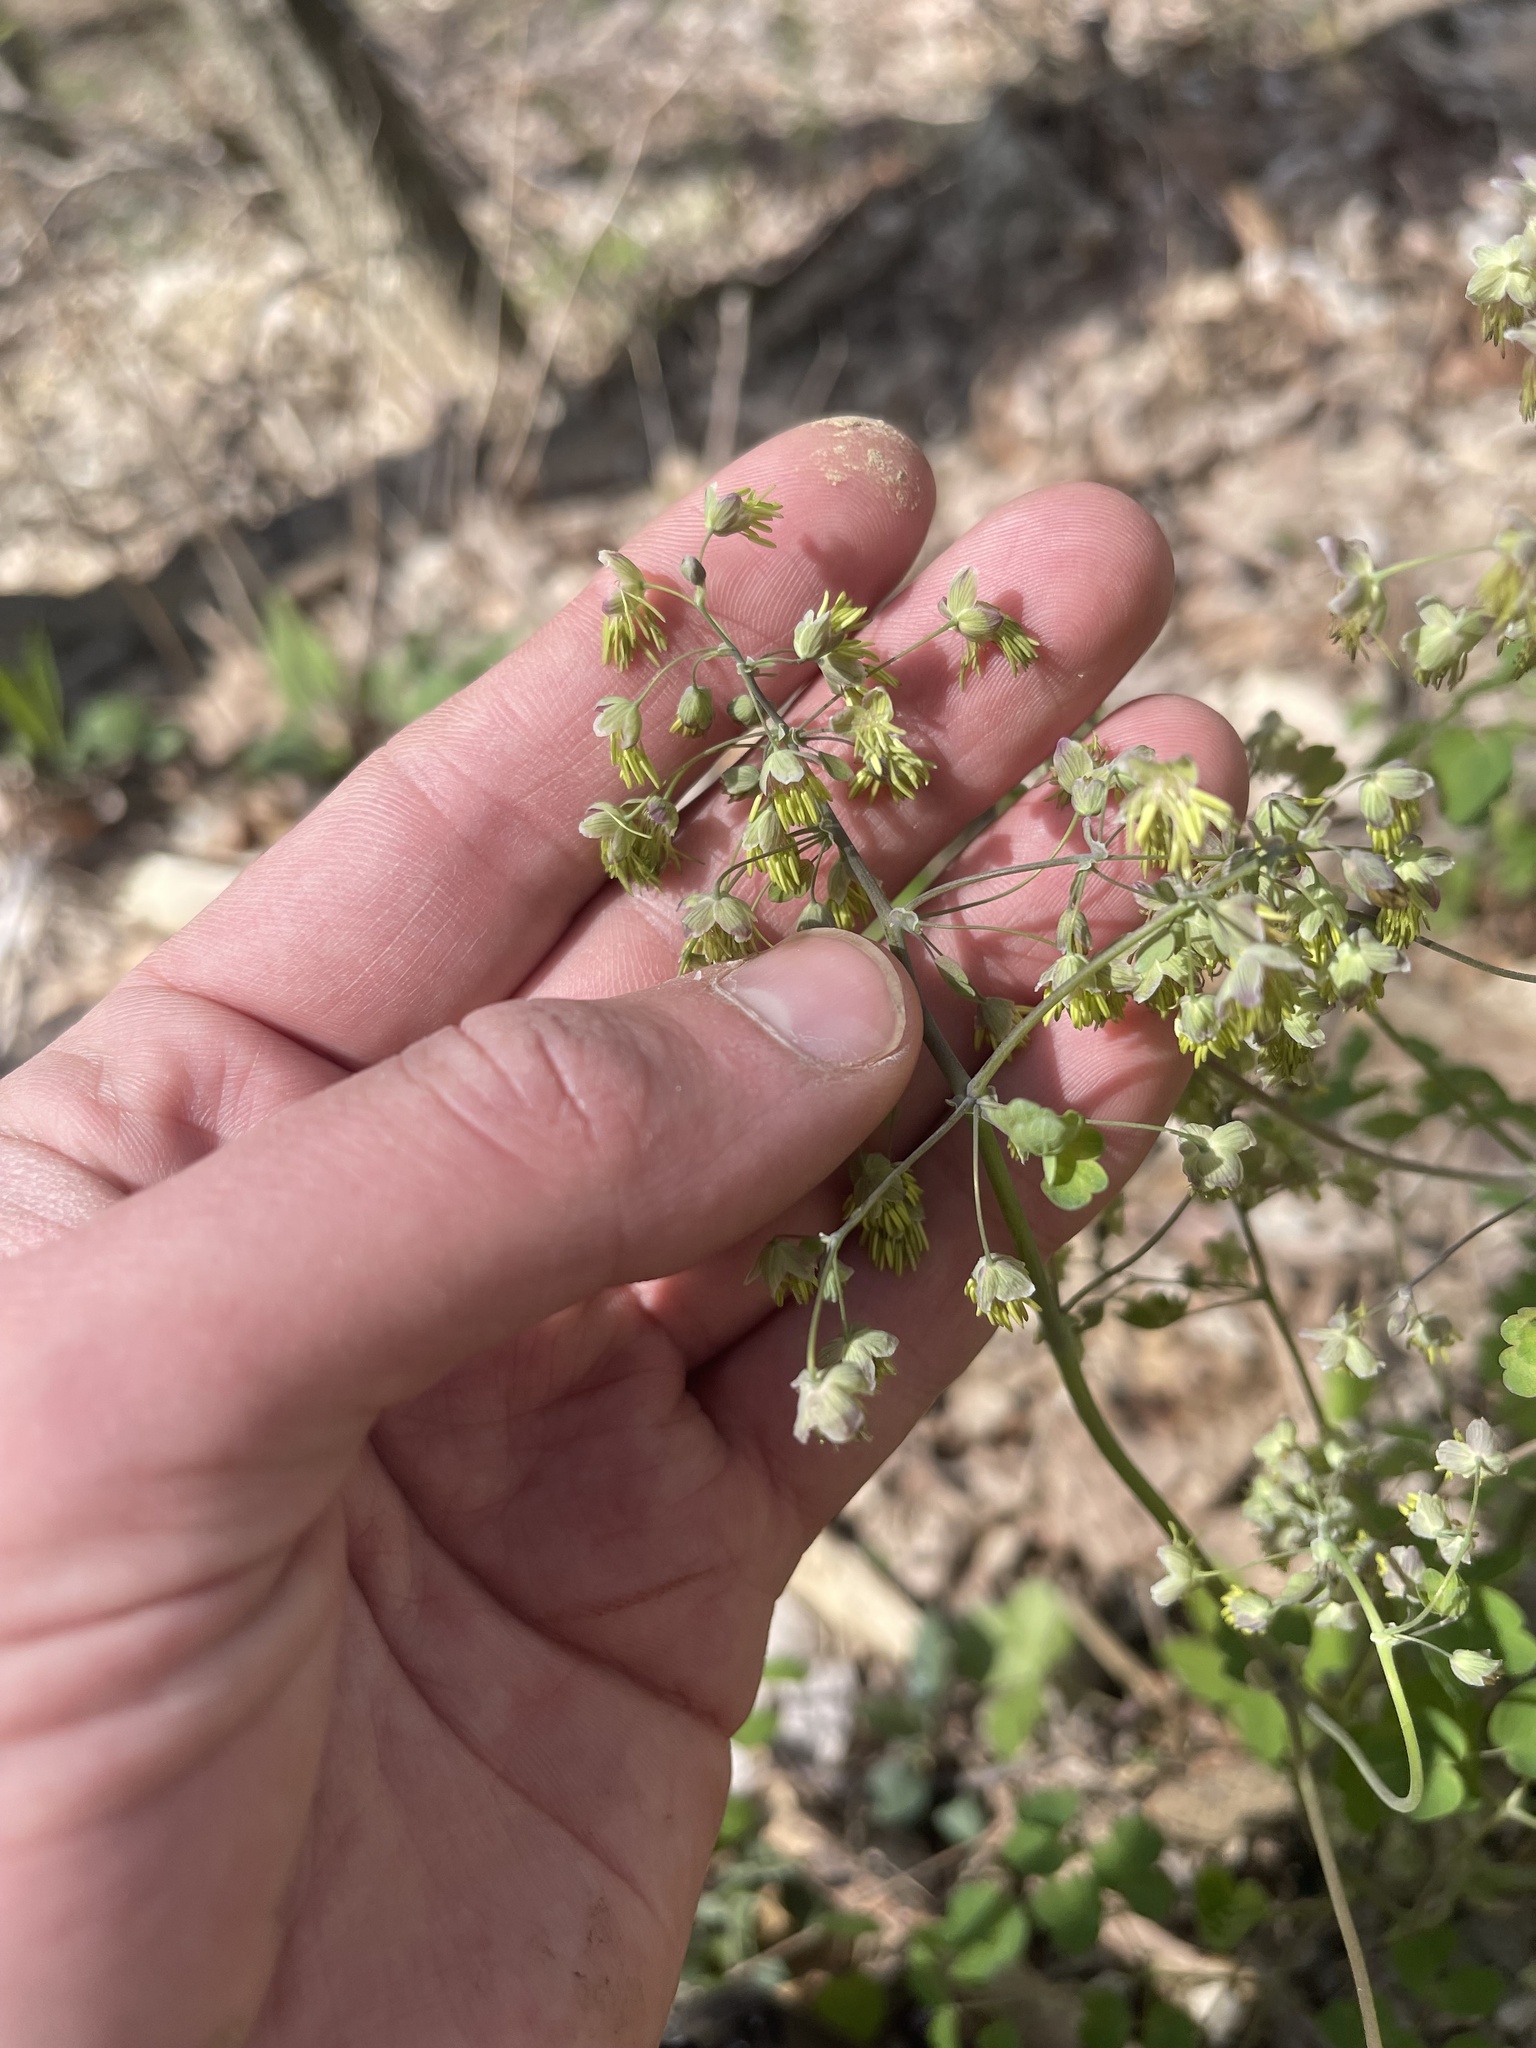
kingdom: Plantae
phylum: Tracheophyta
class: Magnoliopsida
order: Ranunculales
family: Ranunculaceae
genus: Thalictrum
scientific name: Thalictrum dioicum
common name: Early meadow-rue
